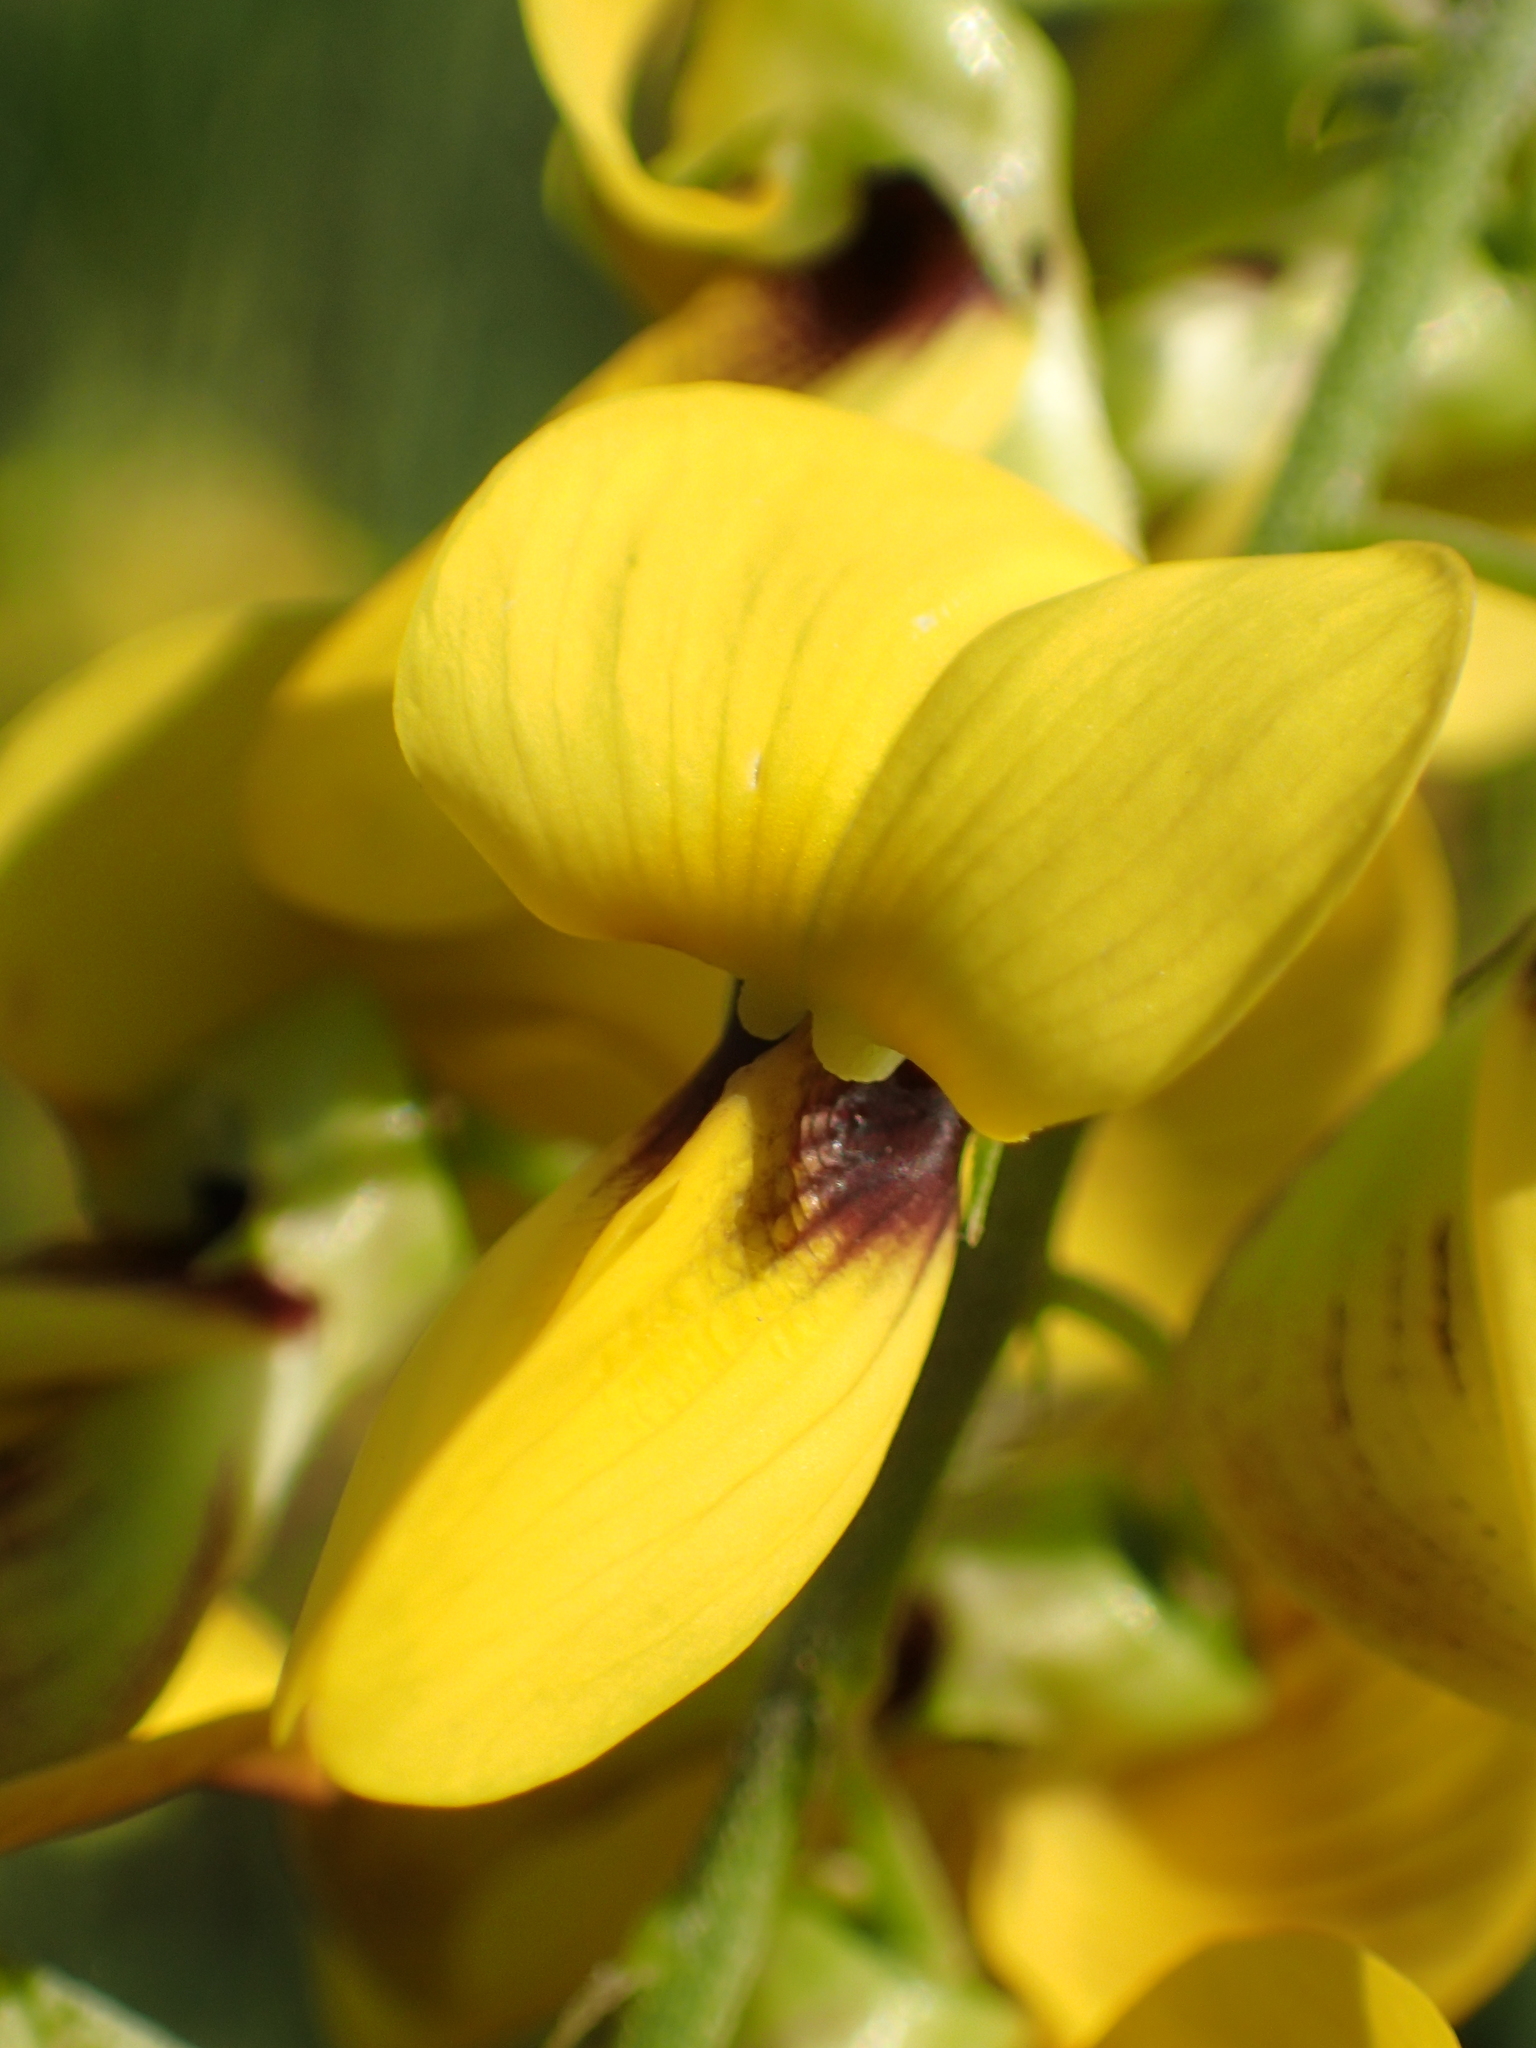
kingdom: Plantae
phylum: Tracheophyta
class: Magnoliopsida
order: Fabales
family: Fabaceae
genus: Crotalaria
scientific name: Crotalaria trichotoma
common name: West indian rattlebox
